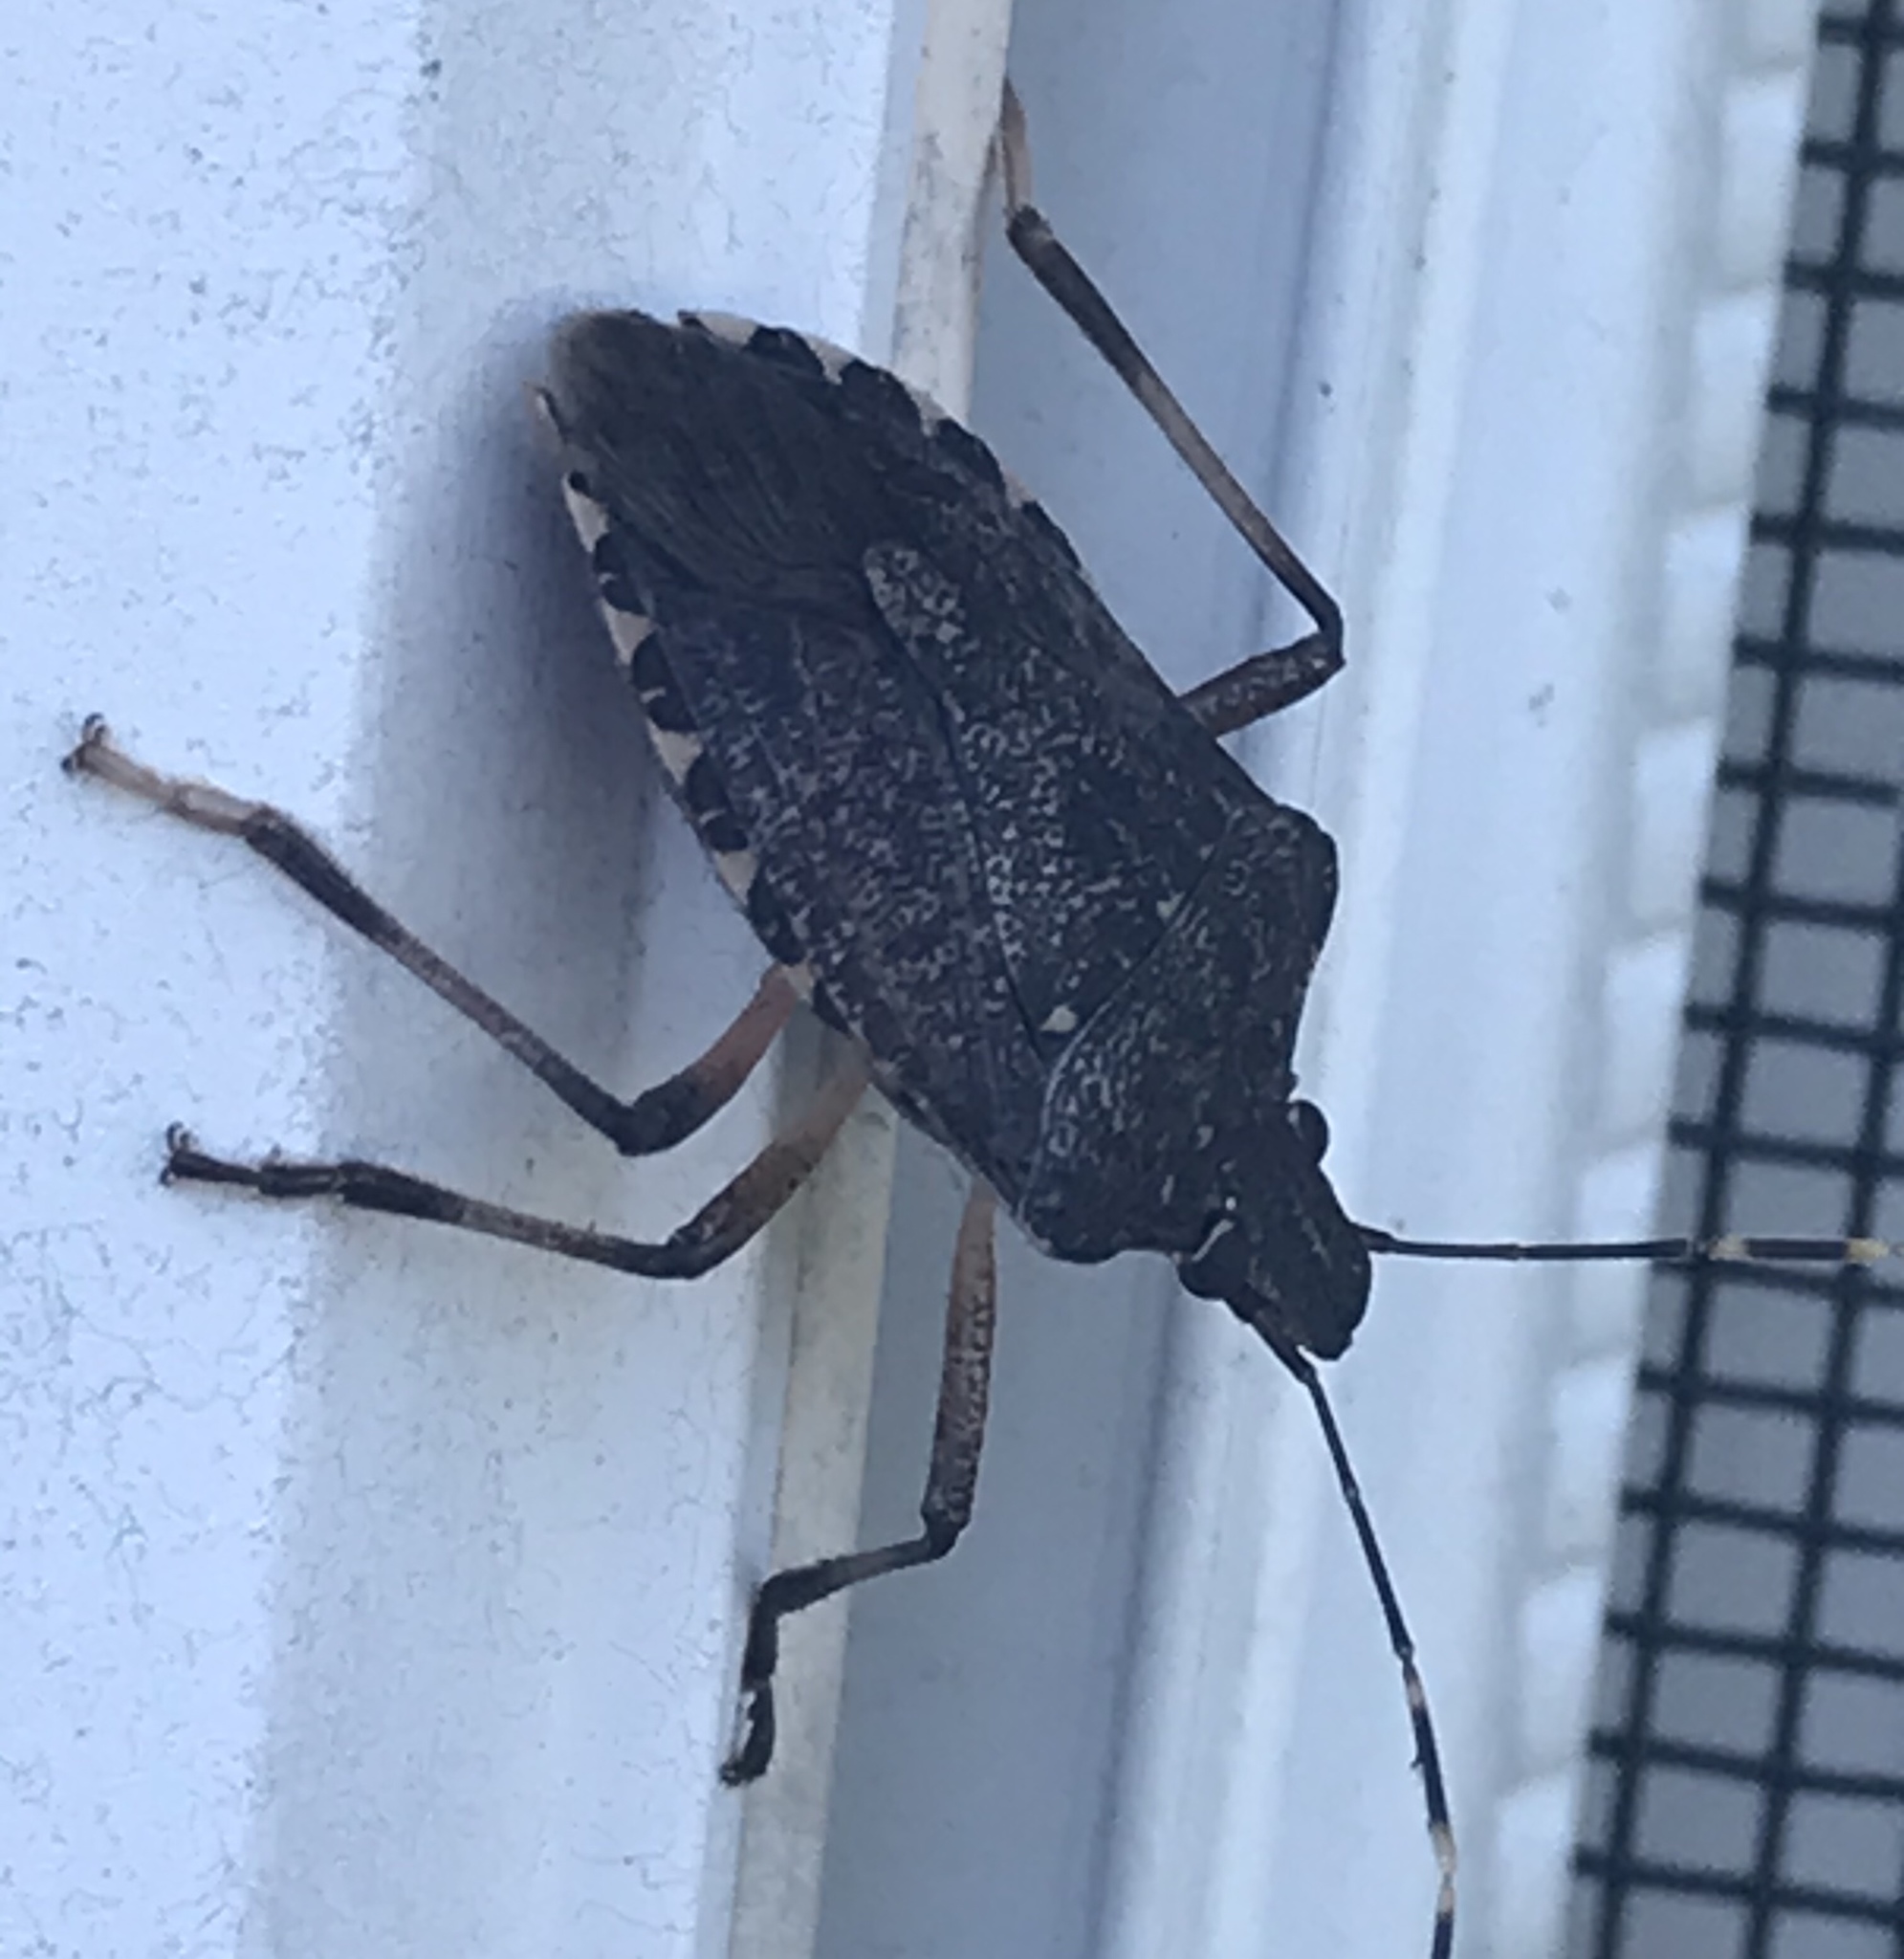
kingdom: Animalia
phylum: Arthropoda
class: Insecta
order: Hemiptera
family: Pentatomidae
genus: Halyomorpha
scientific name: Halyomorpha halys
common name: Brown marmorated stink bug
